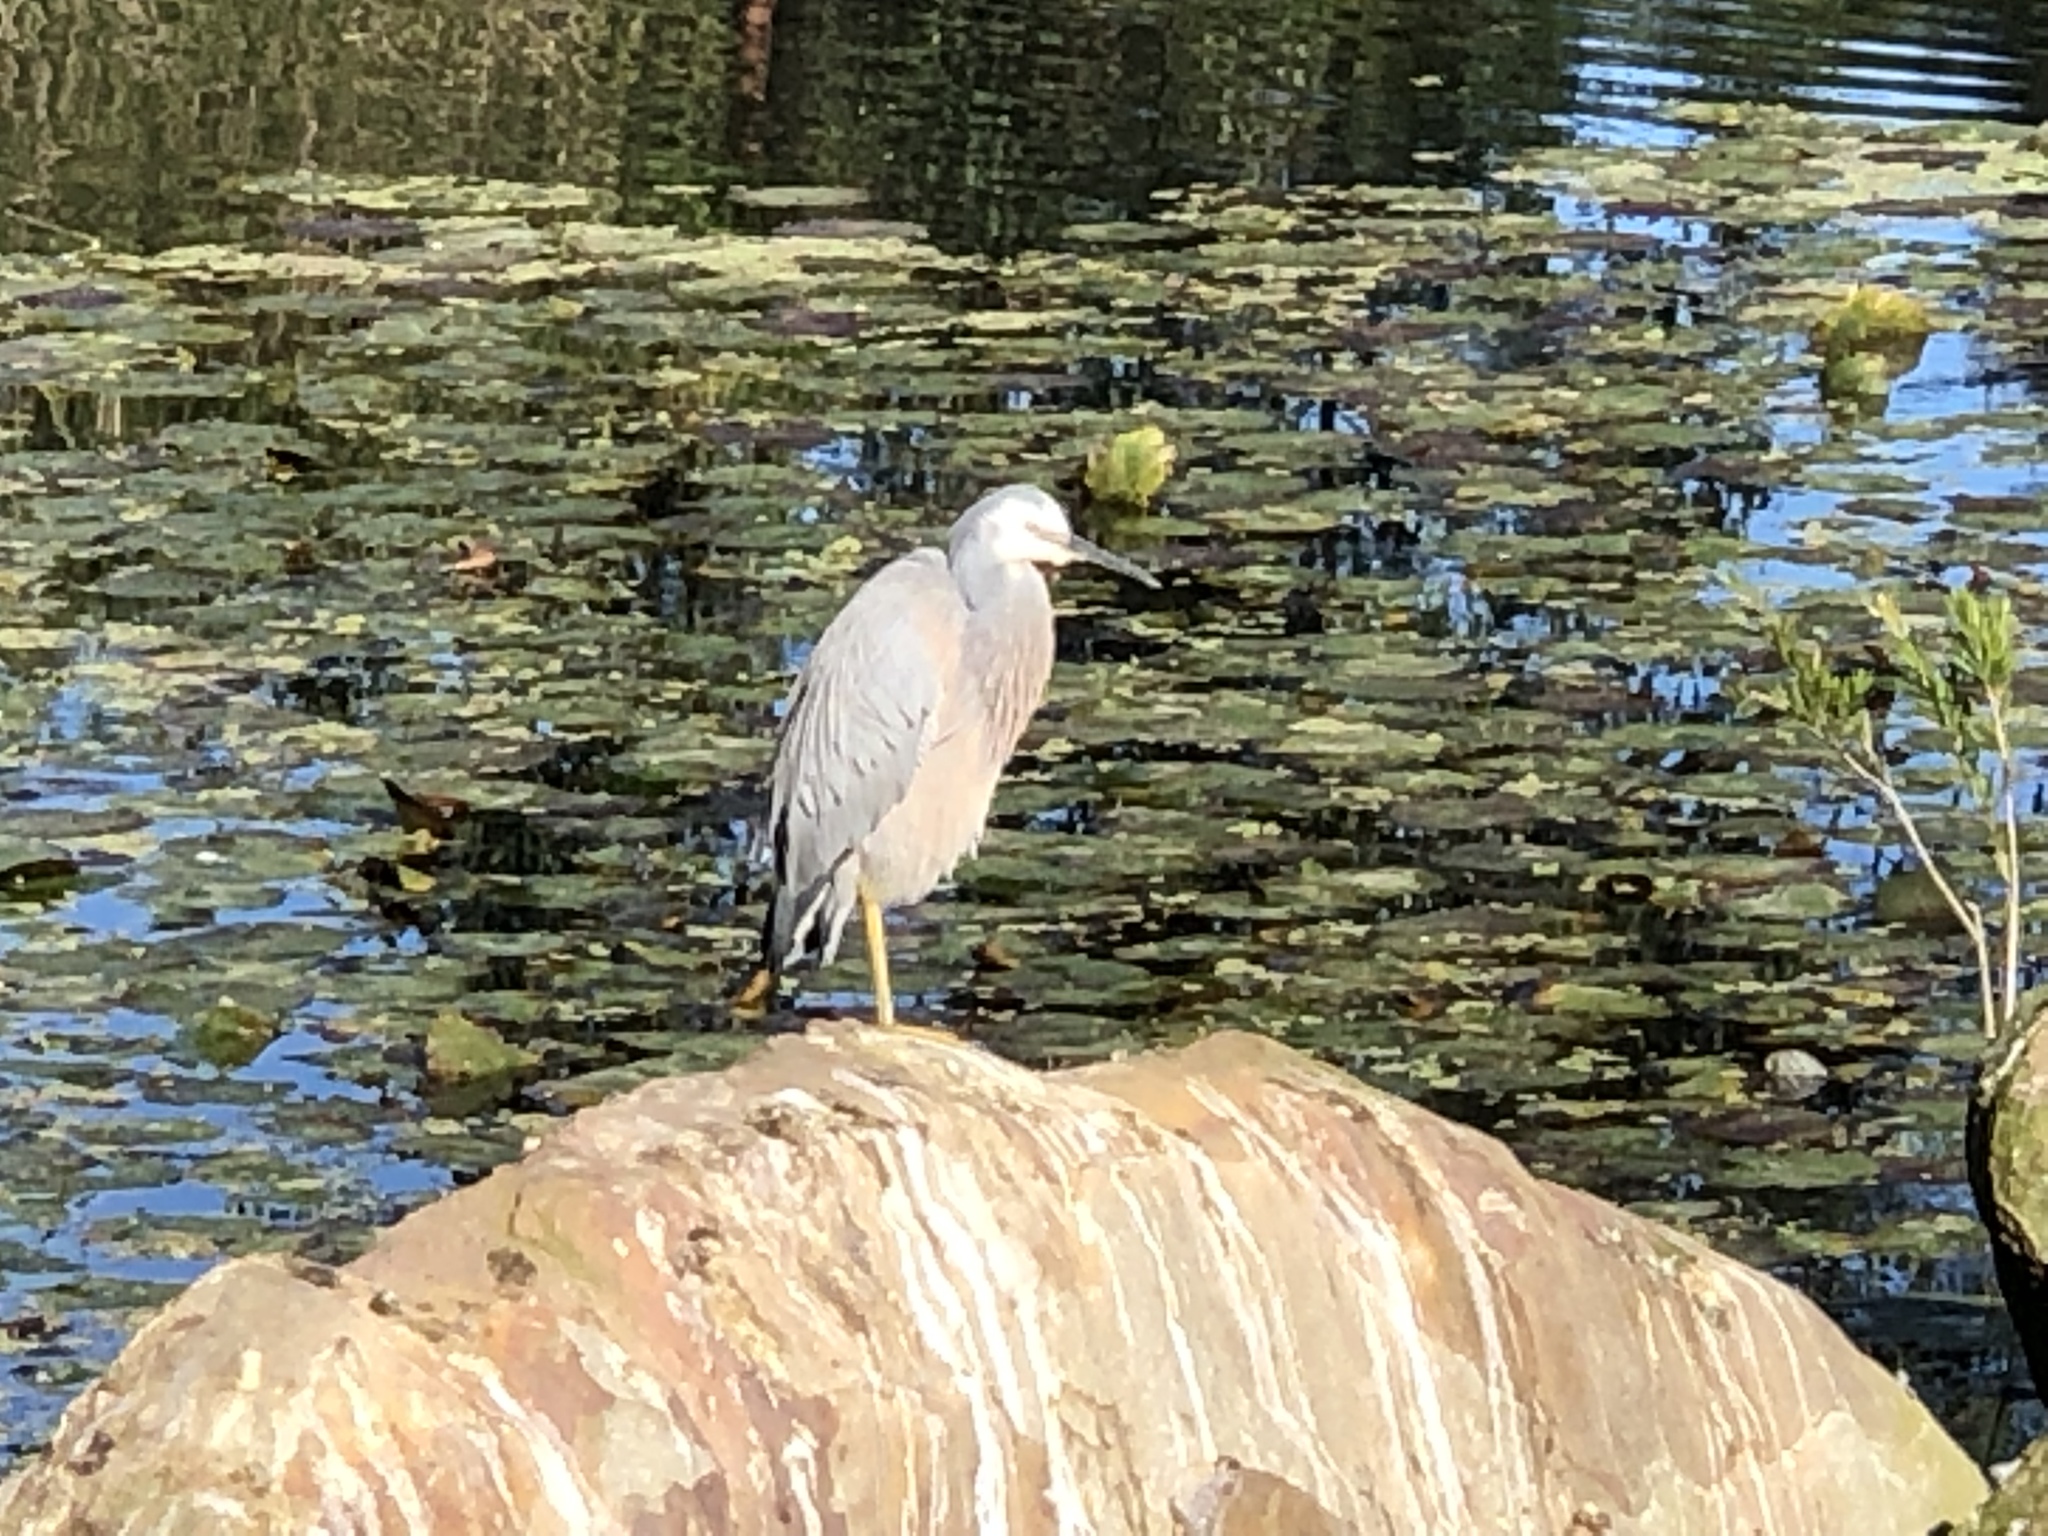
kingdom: Animalia
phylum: Chordata
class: Aves
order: Pelecaniformes
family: Ardeidae
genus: Egretta
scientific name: Egretta novaehollandiae
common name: White-faced heron
